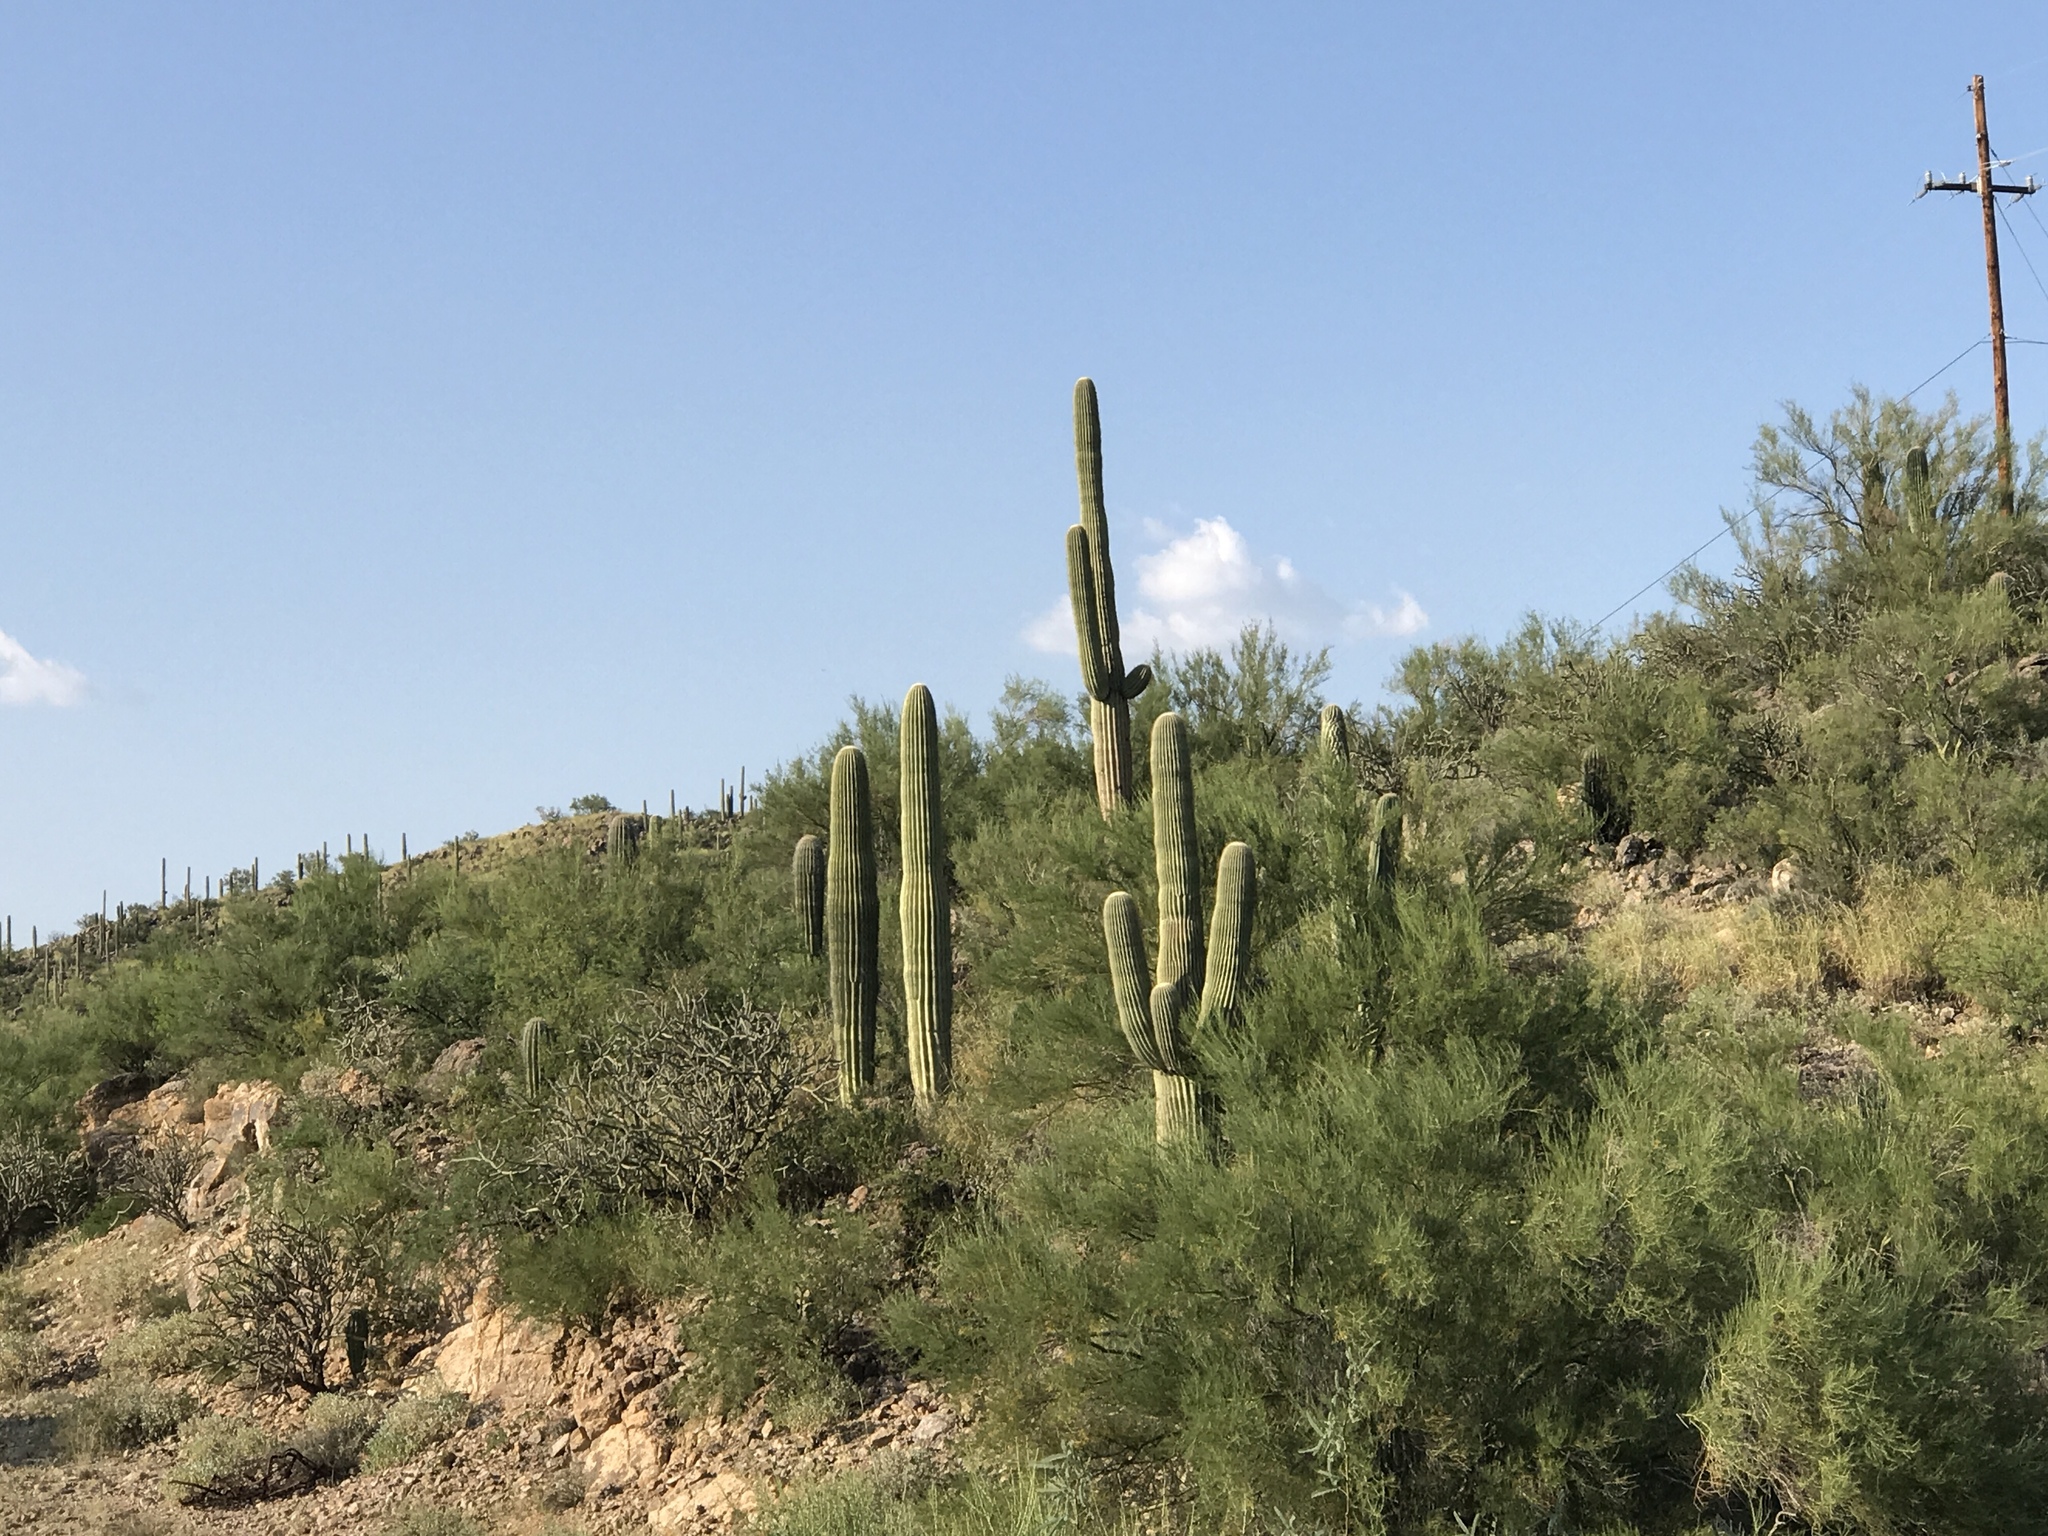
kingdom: Plantae
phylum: Tracheophyta
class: Magnoliopsida
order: Caryophyllales
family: Cactaceae
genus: Carnegiea
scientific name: Carnegiea gigantea
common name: Saguaro
